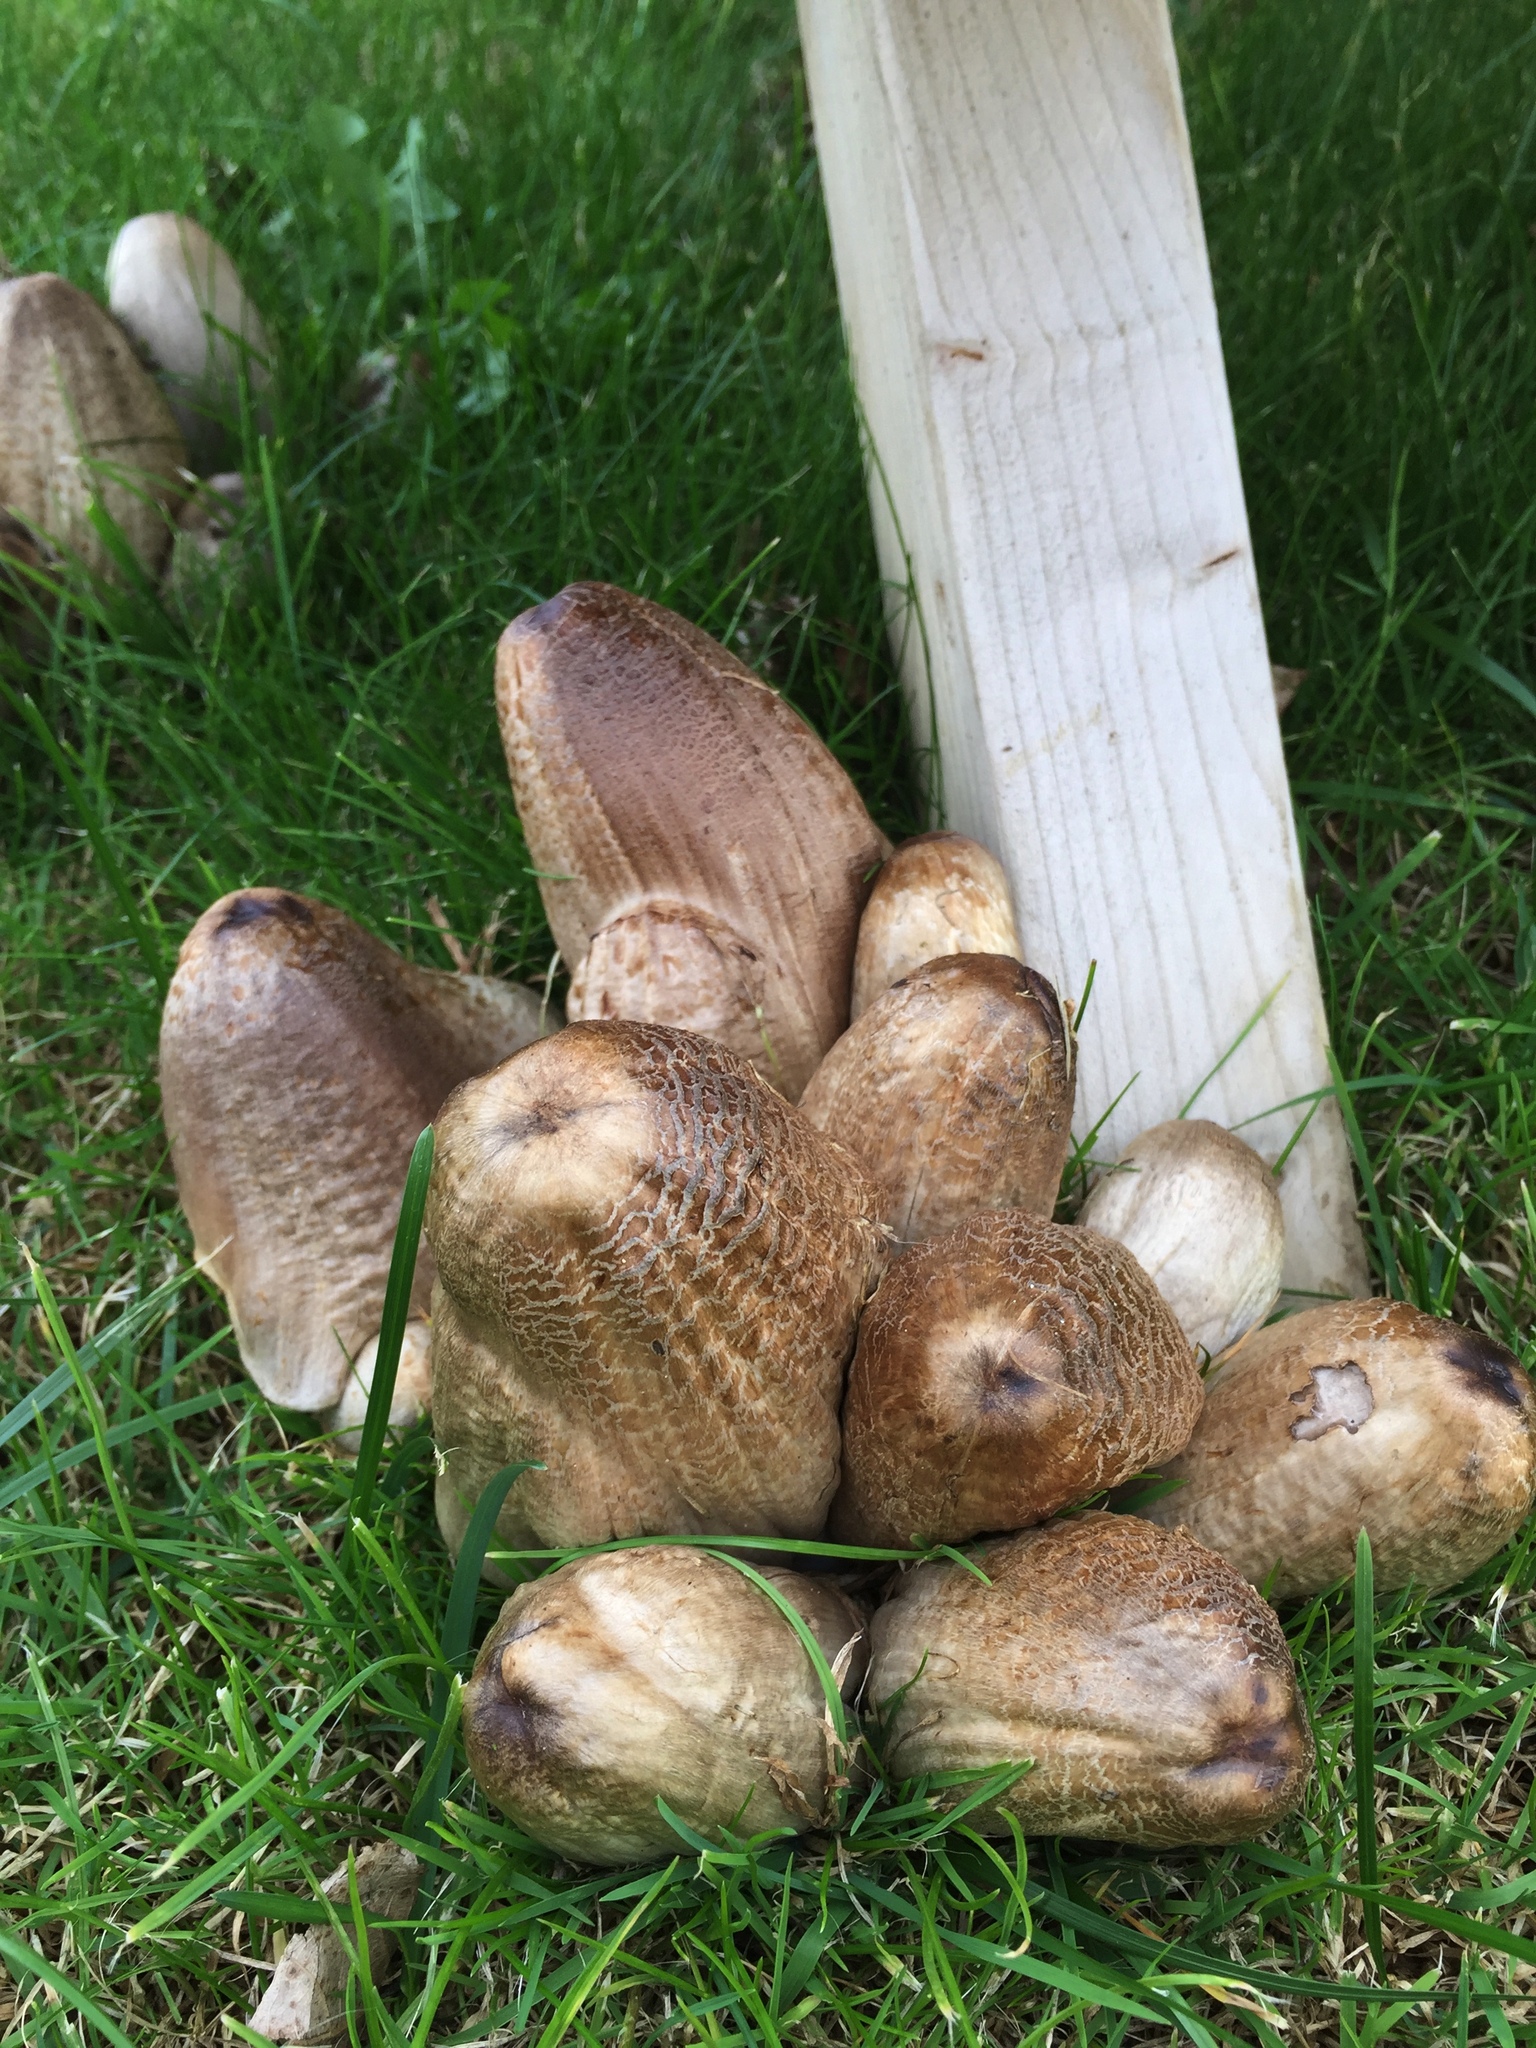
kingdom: Fungi
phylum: Basidiomycota
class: Agaricomycetes
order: Agaricales
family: Psathyrellaceae
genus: Coprinopsis
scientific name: Coprinopsis atramentaria
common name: Common ink-cap
